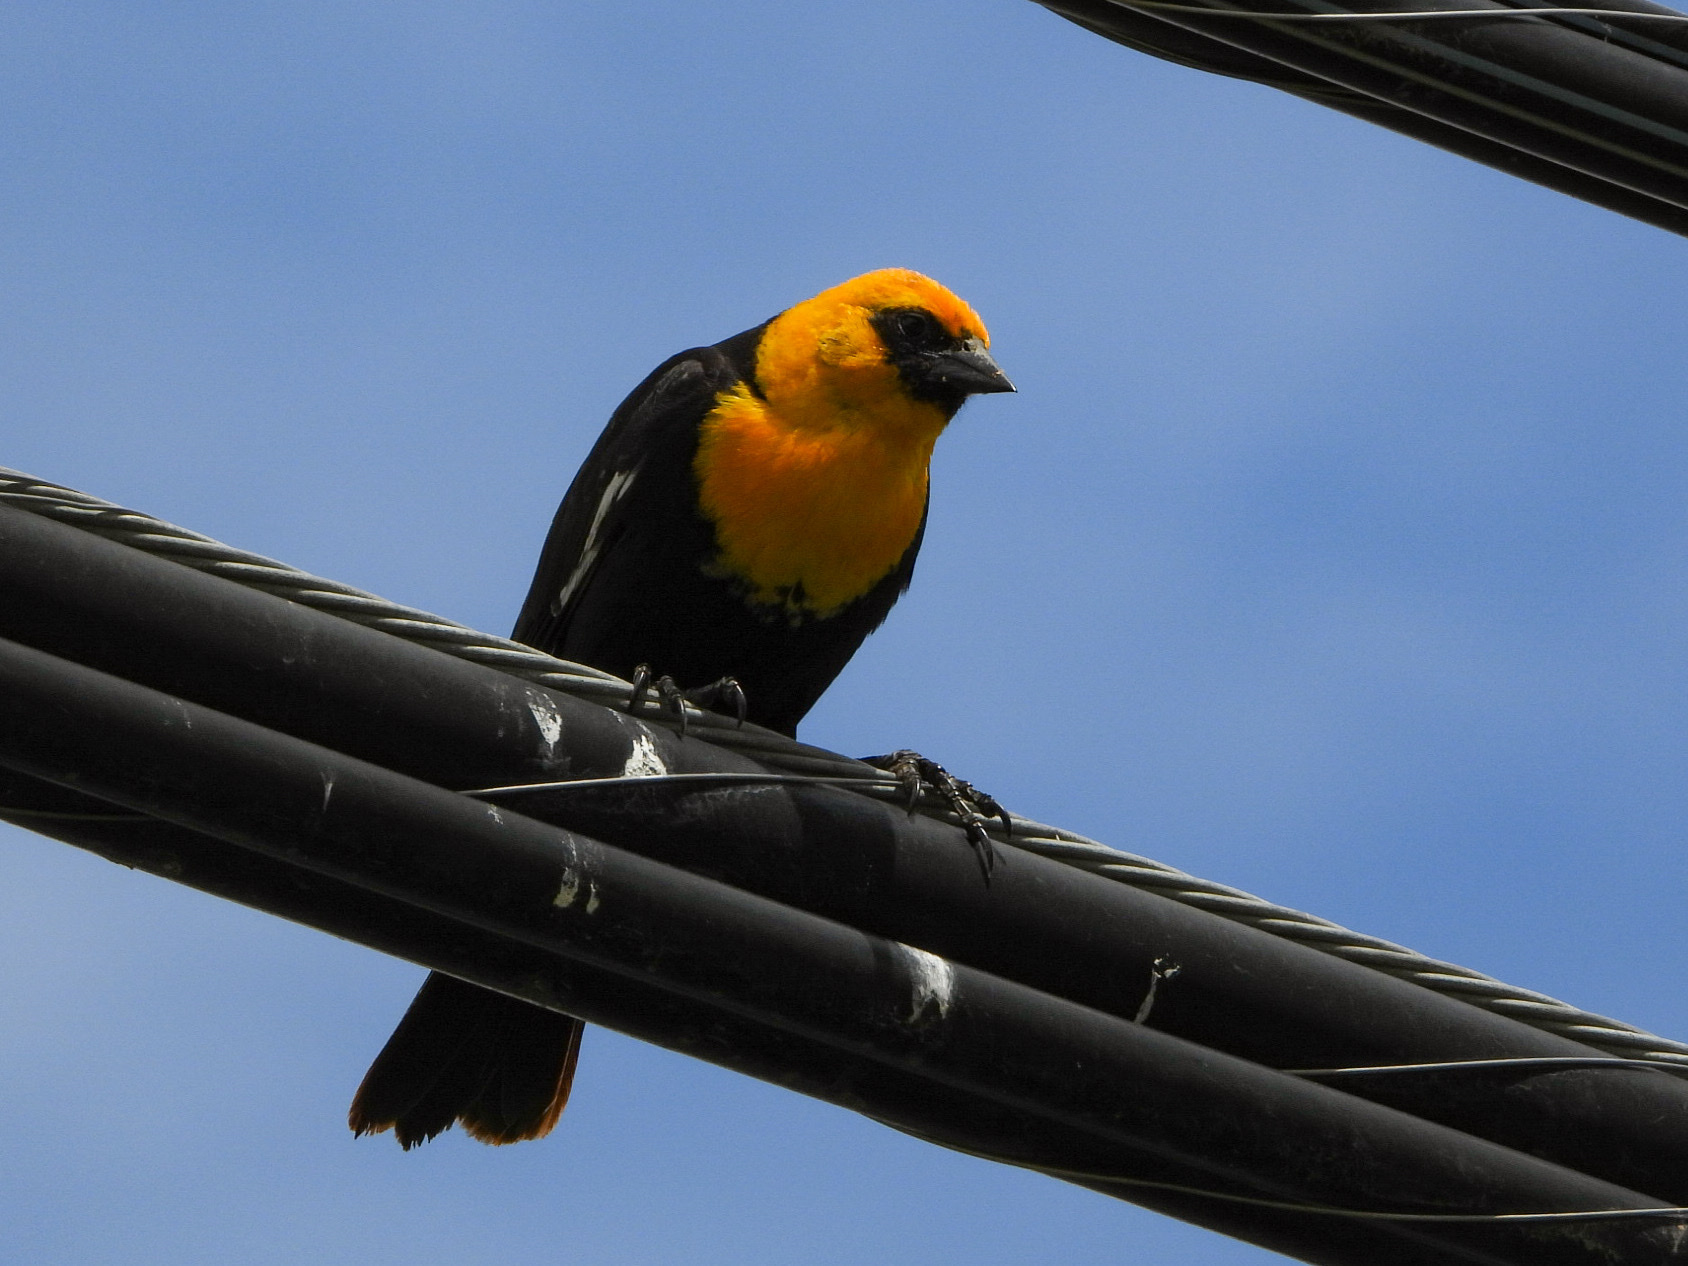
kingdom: Animalia
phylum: Chordata
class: Aves
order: Passeriformes
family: Icteridae
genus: Xanthocephalus
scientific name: Xanthocephalus xanthocephalus
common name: Yellow-headed blackbird
